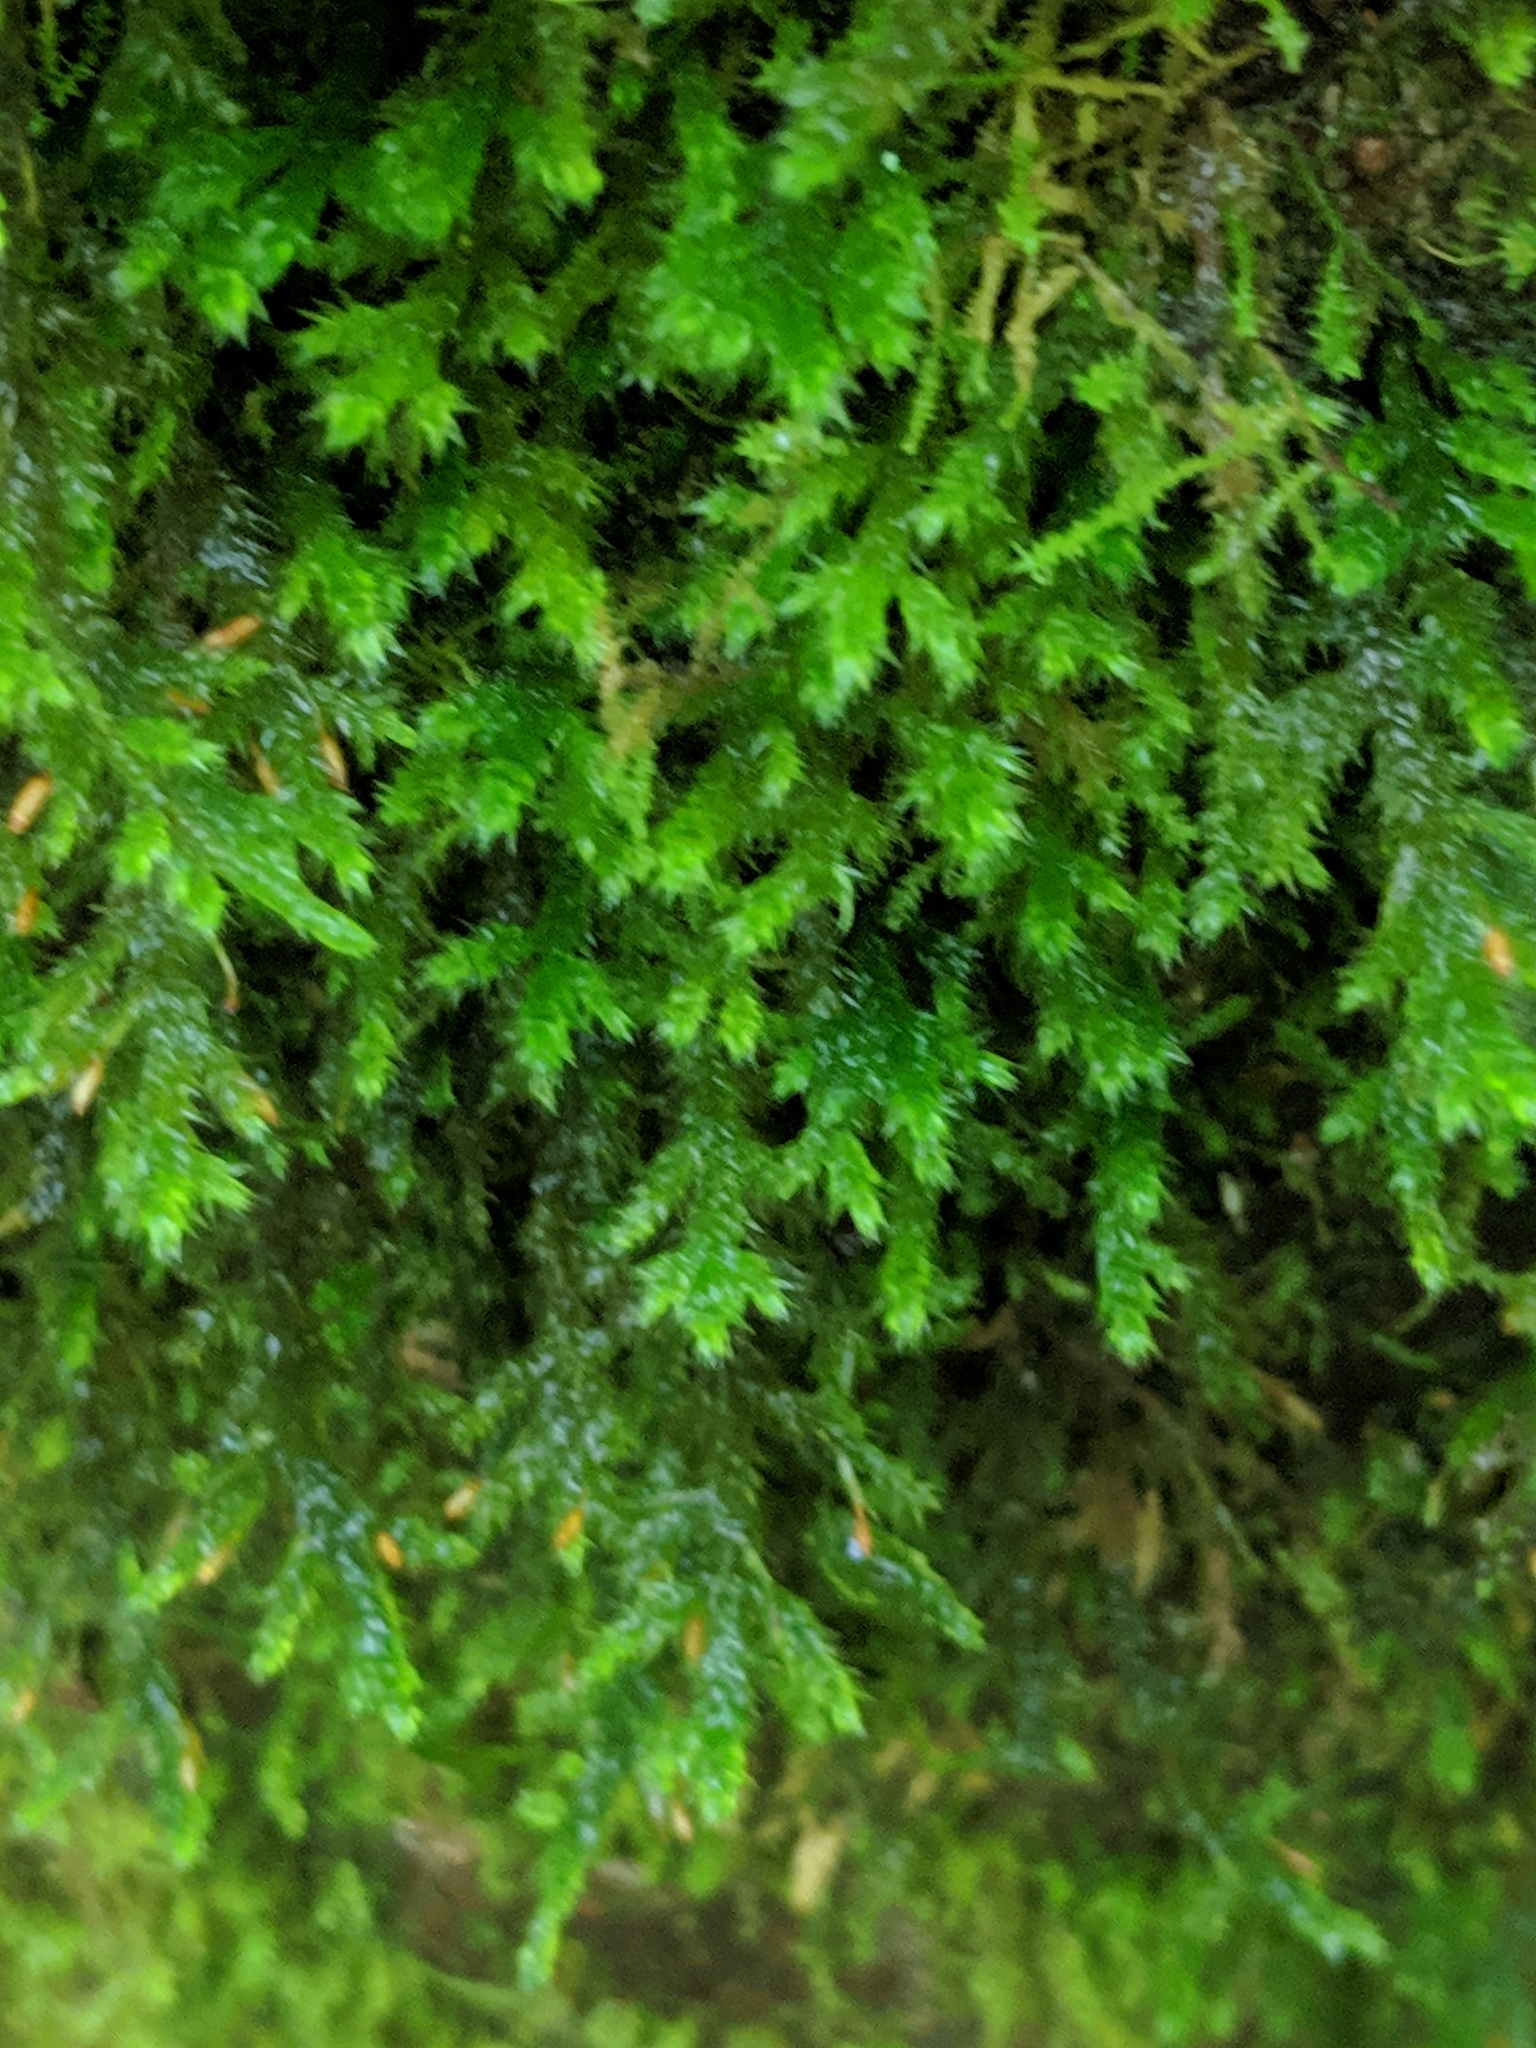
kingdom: Plantae
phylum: Bryophyta
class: Bryopsida
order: Hypnales
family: Neckeraceae
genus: Forsstroemia
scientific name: Forsstroemia trichomitria
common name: Fan moss
